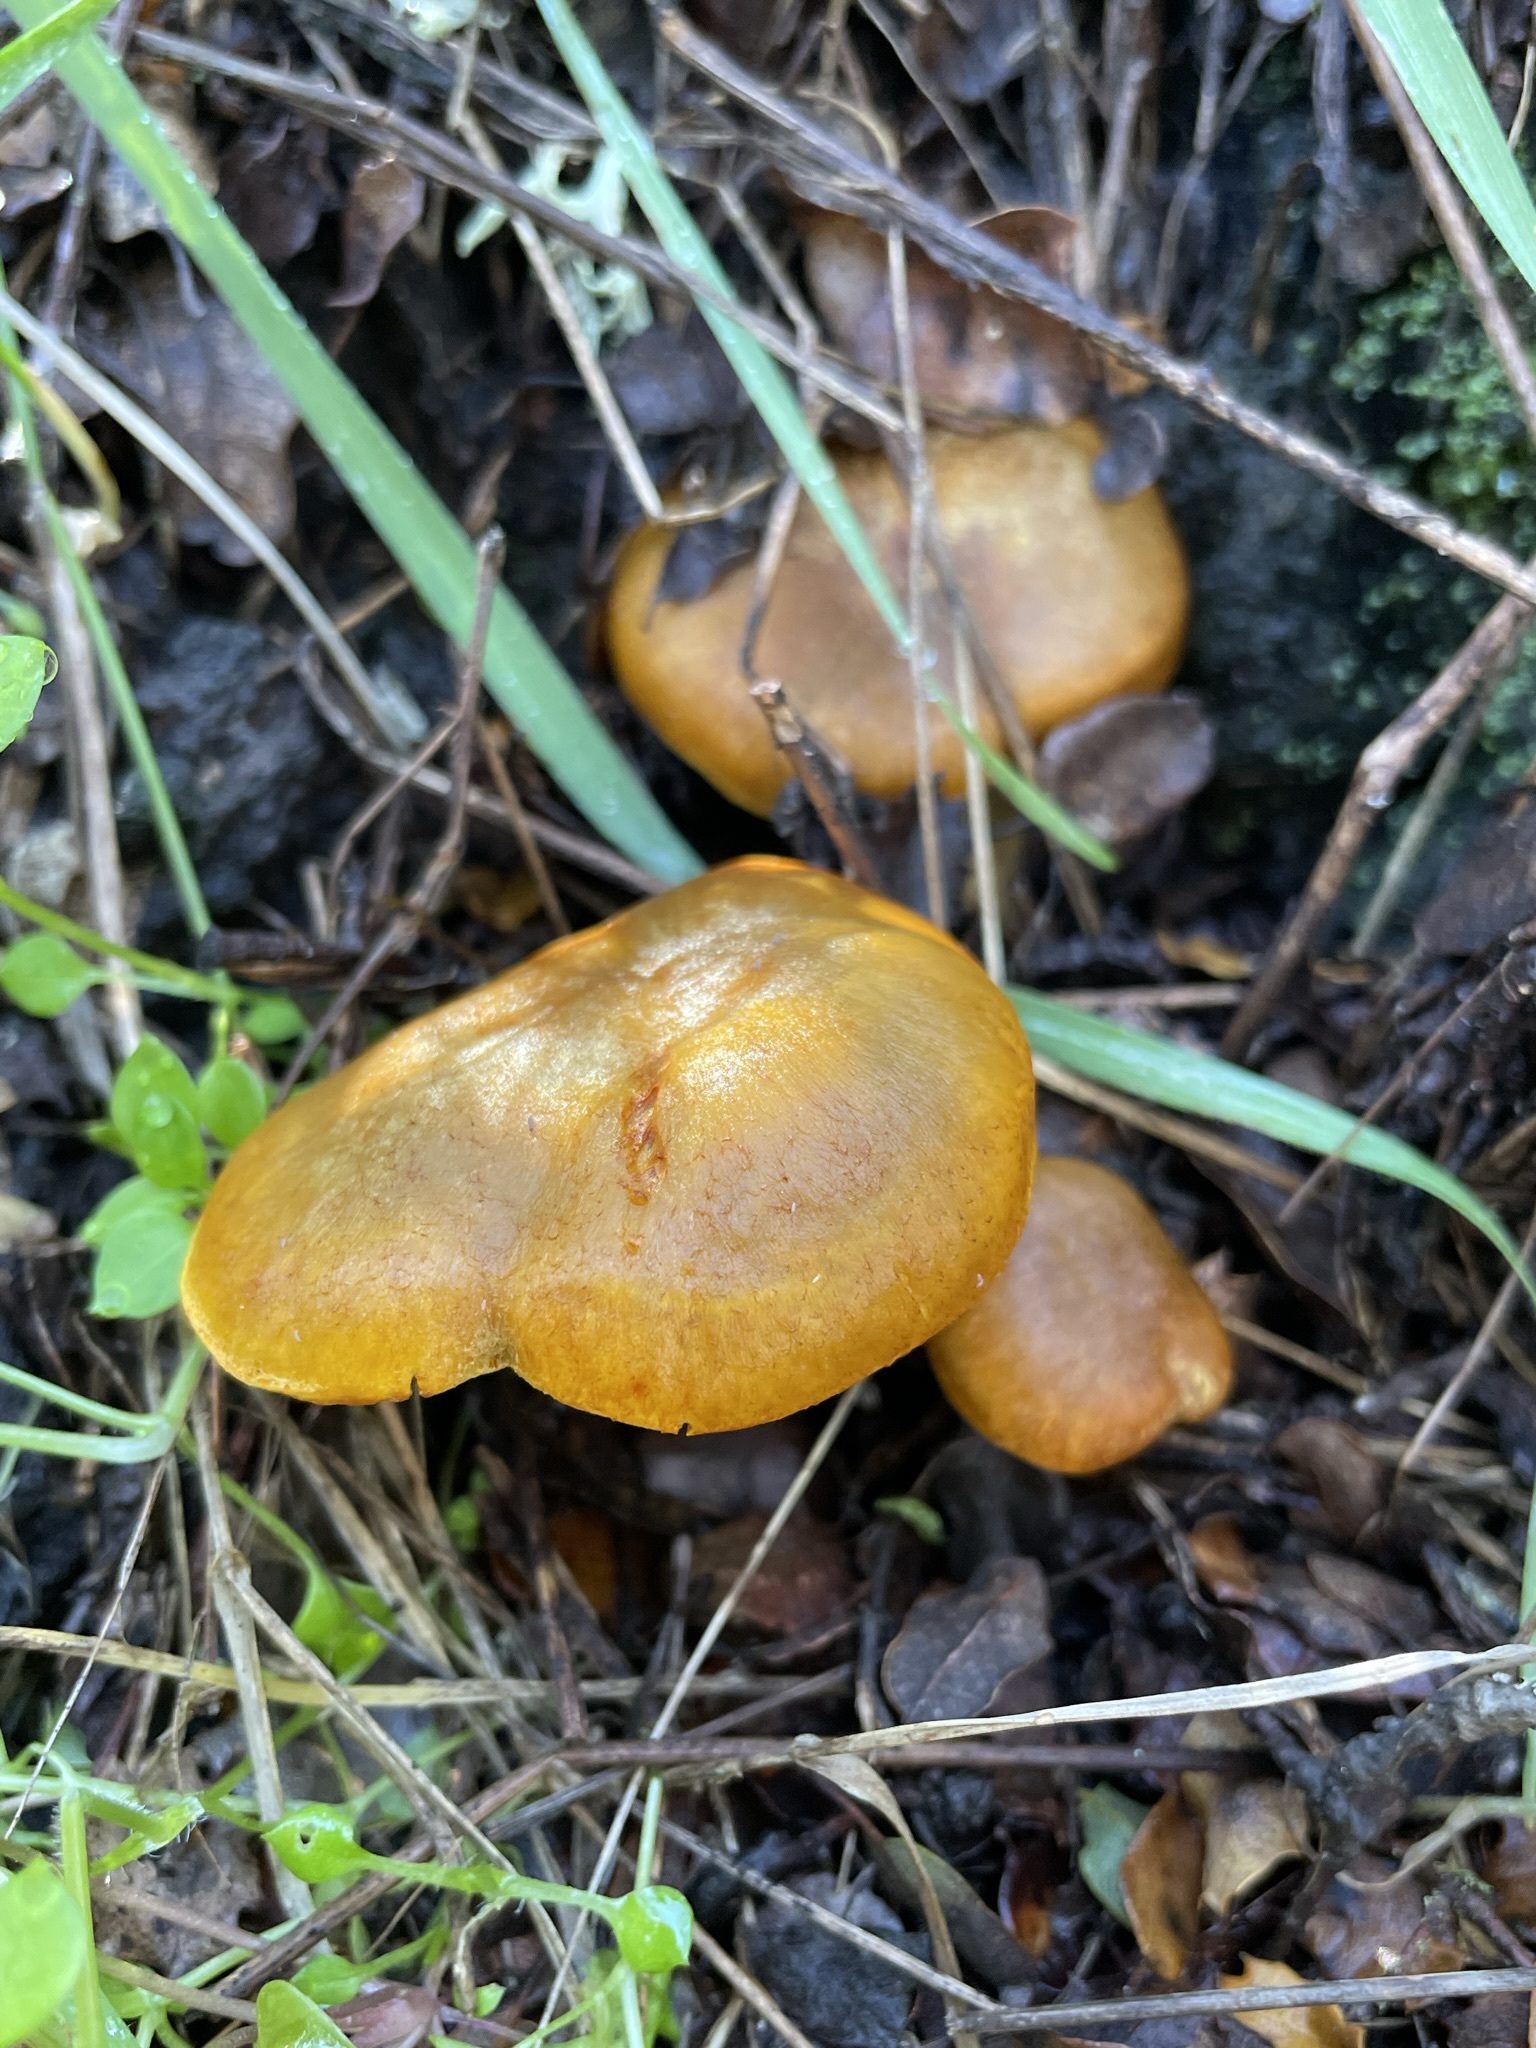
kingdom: Fungi
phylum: Basidiomycota
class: Agaricomycetes
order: Agaricales
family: Omphalotaceae
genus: Omphalotus
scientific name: Omphalotus olivascens
